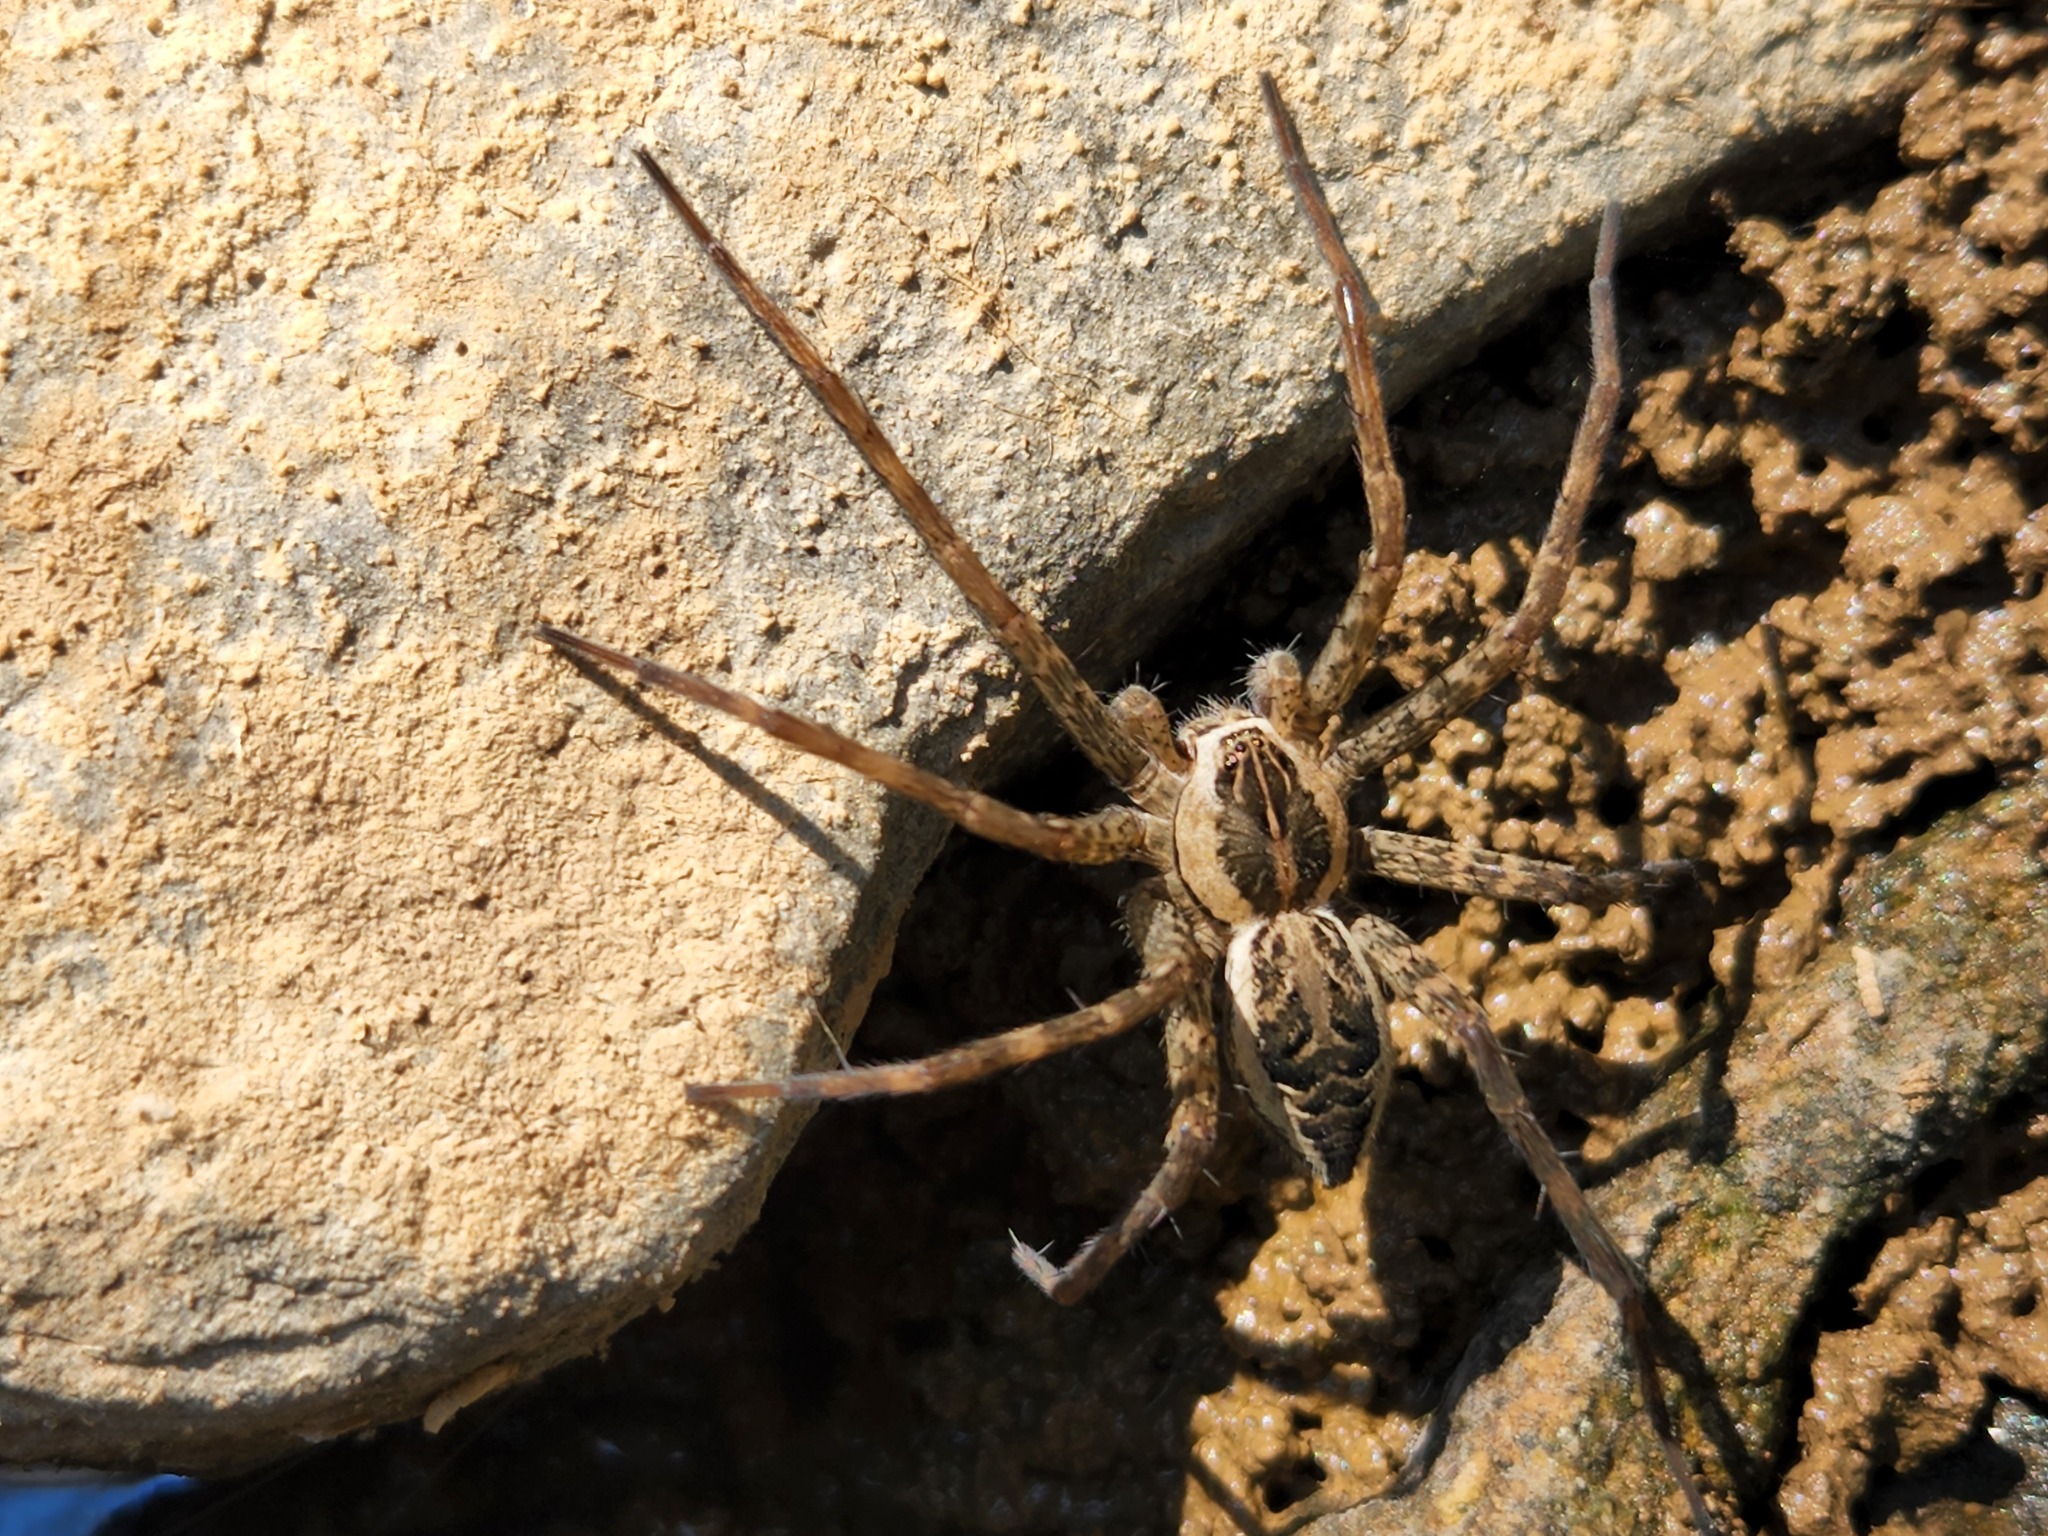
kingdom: Animalia
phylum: Arthropoda
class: Arachnida
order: Araneae
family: Pisauridae
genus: Dolomedes
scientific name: Dolomedes scriptus
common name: Striped fishing spider
